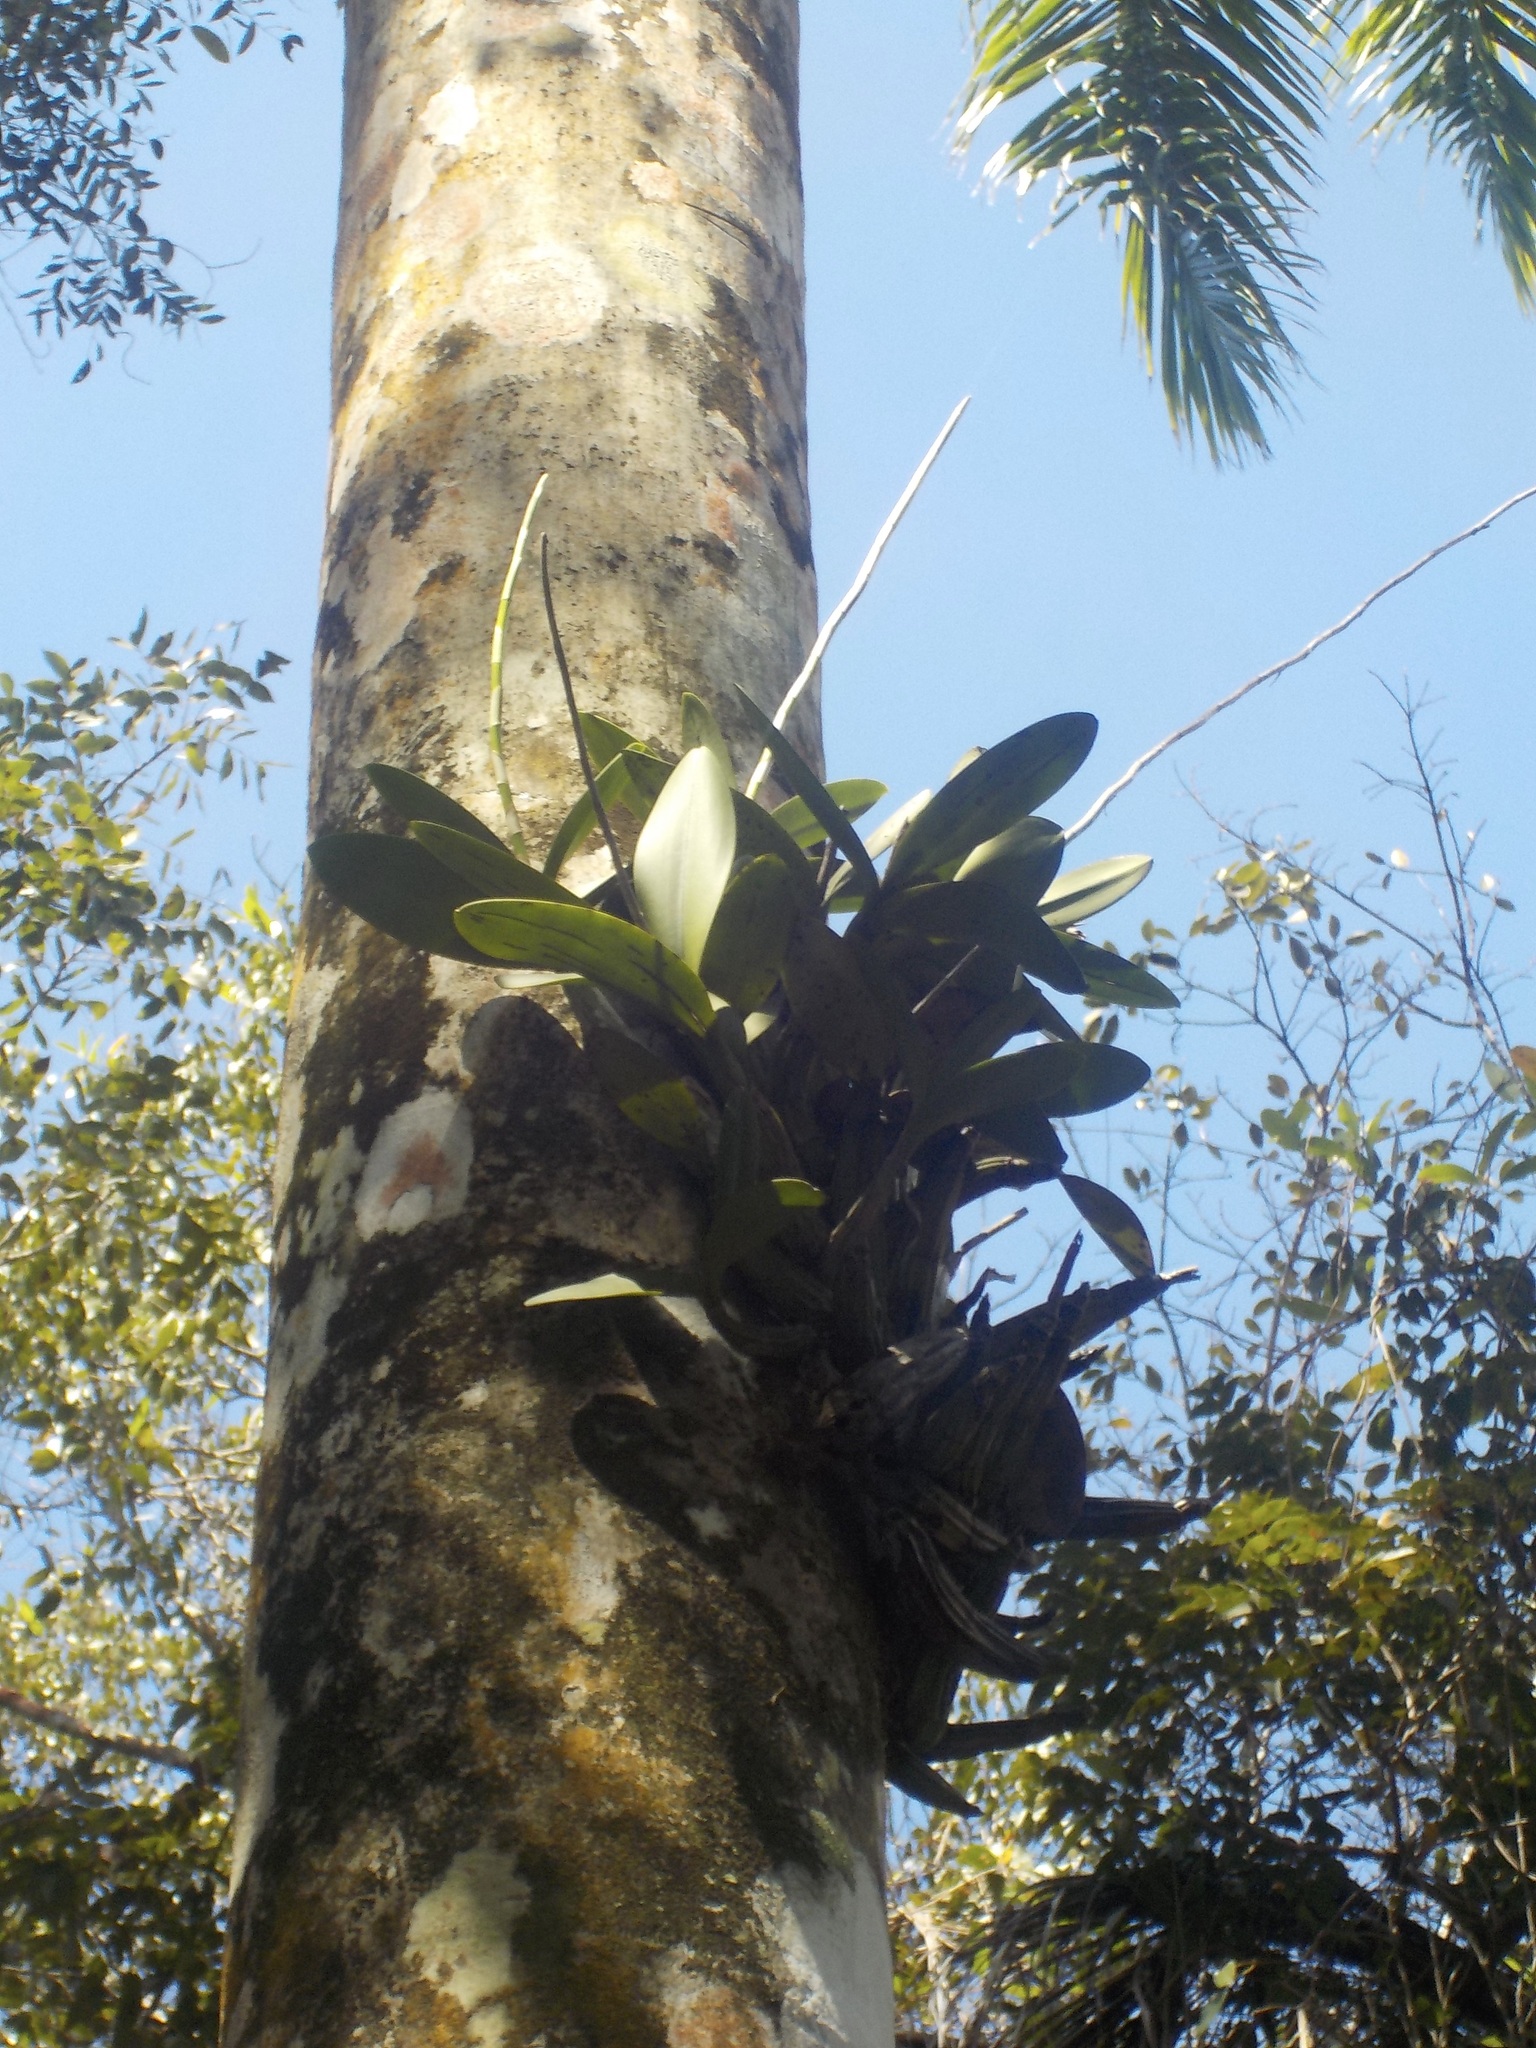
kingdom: Plantae
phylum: Tracheophyta
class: Liliopsida
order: Asparagales
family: Orchidaceae
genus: Myrmecophila
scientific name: Myrmecophila thomsoniana
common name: Banana orchid
